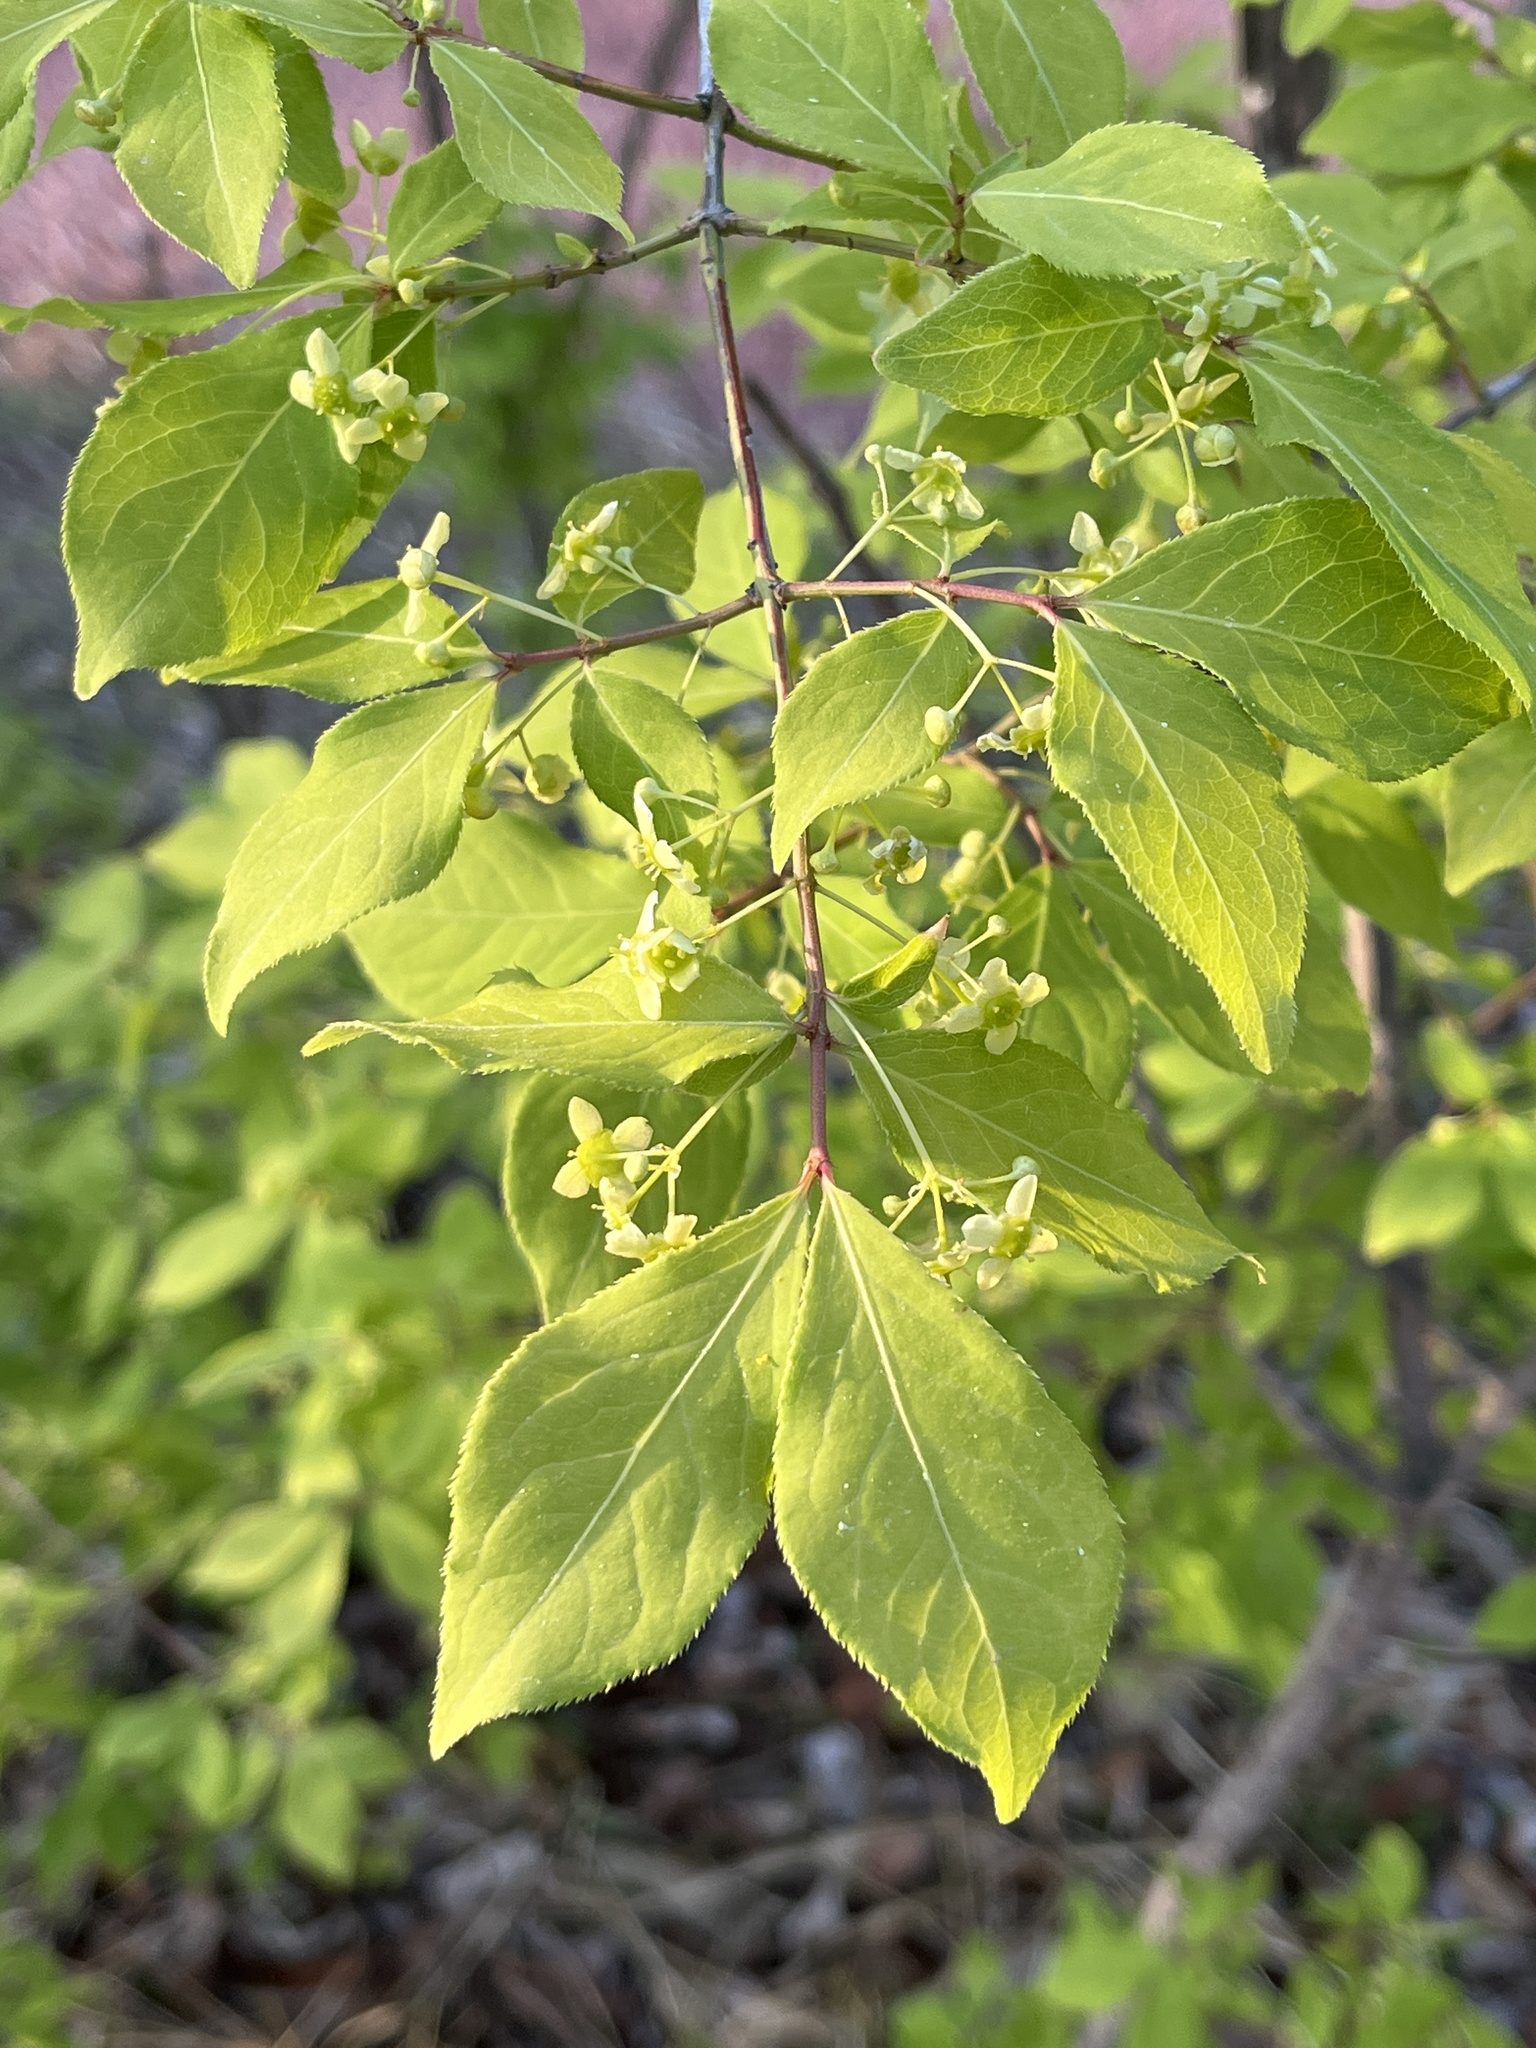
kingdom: Plantae
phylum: Tracheophyta
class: Magnoliopsida
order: Celastrales
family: Celastraceae
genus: Euonymus
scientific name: Euonymus alatus
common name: Winged euonymus
